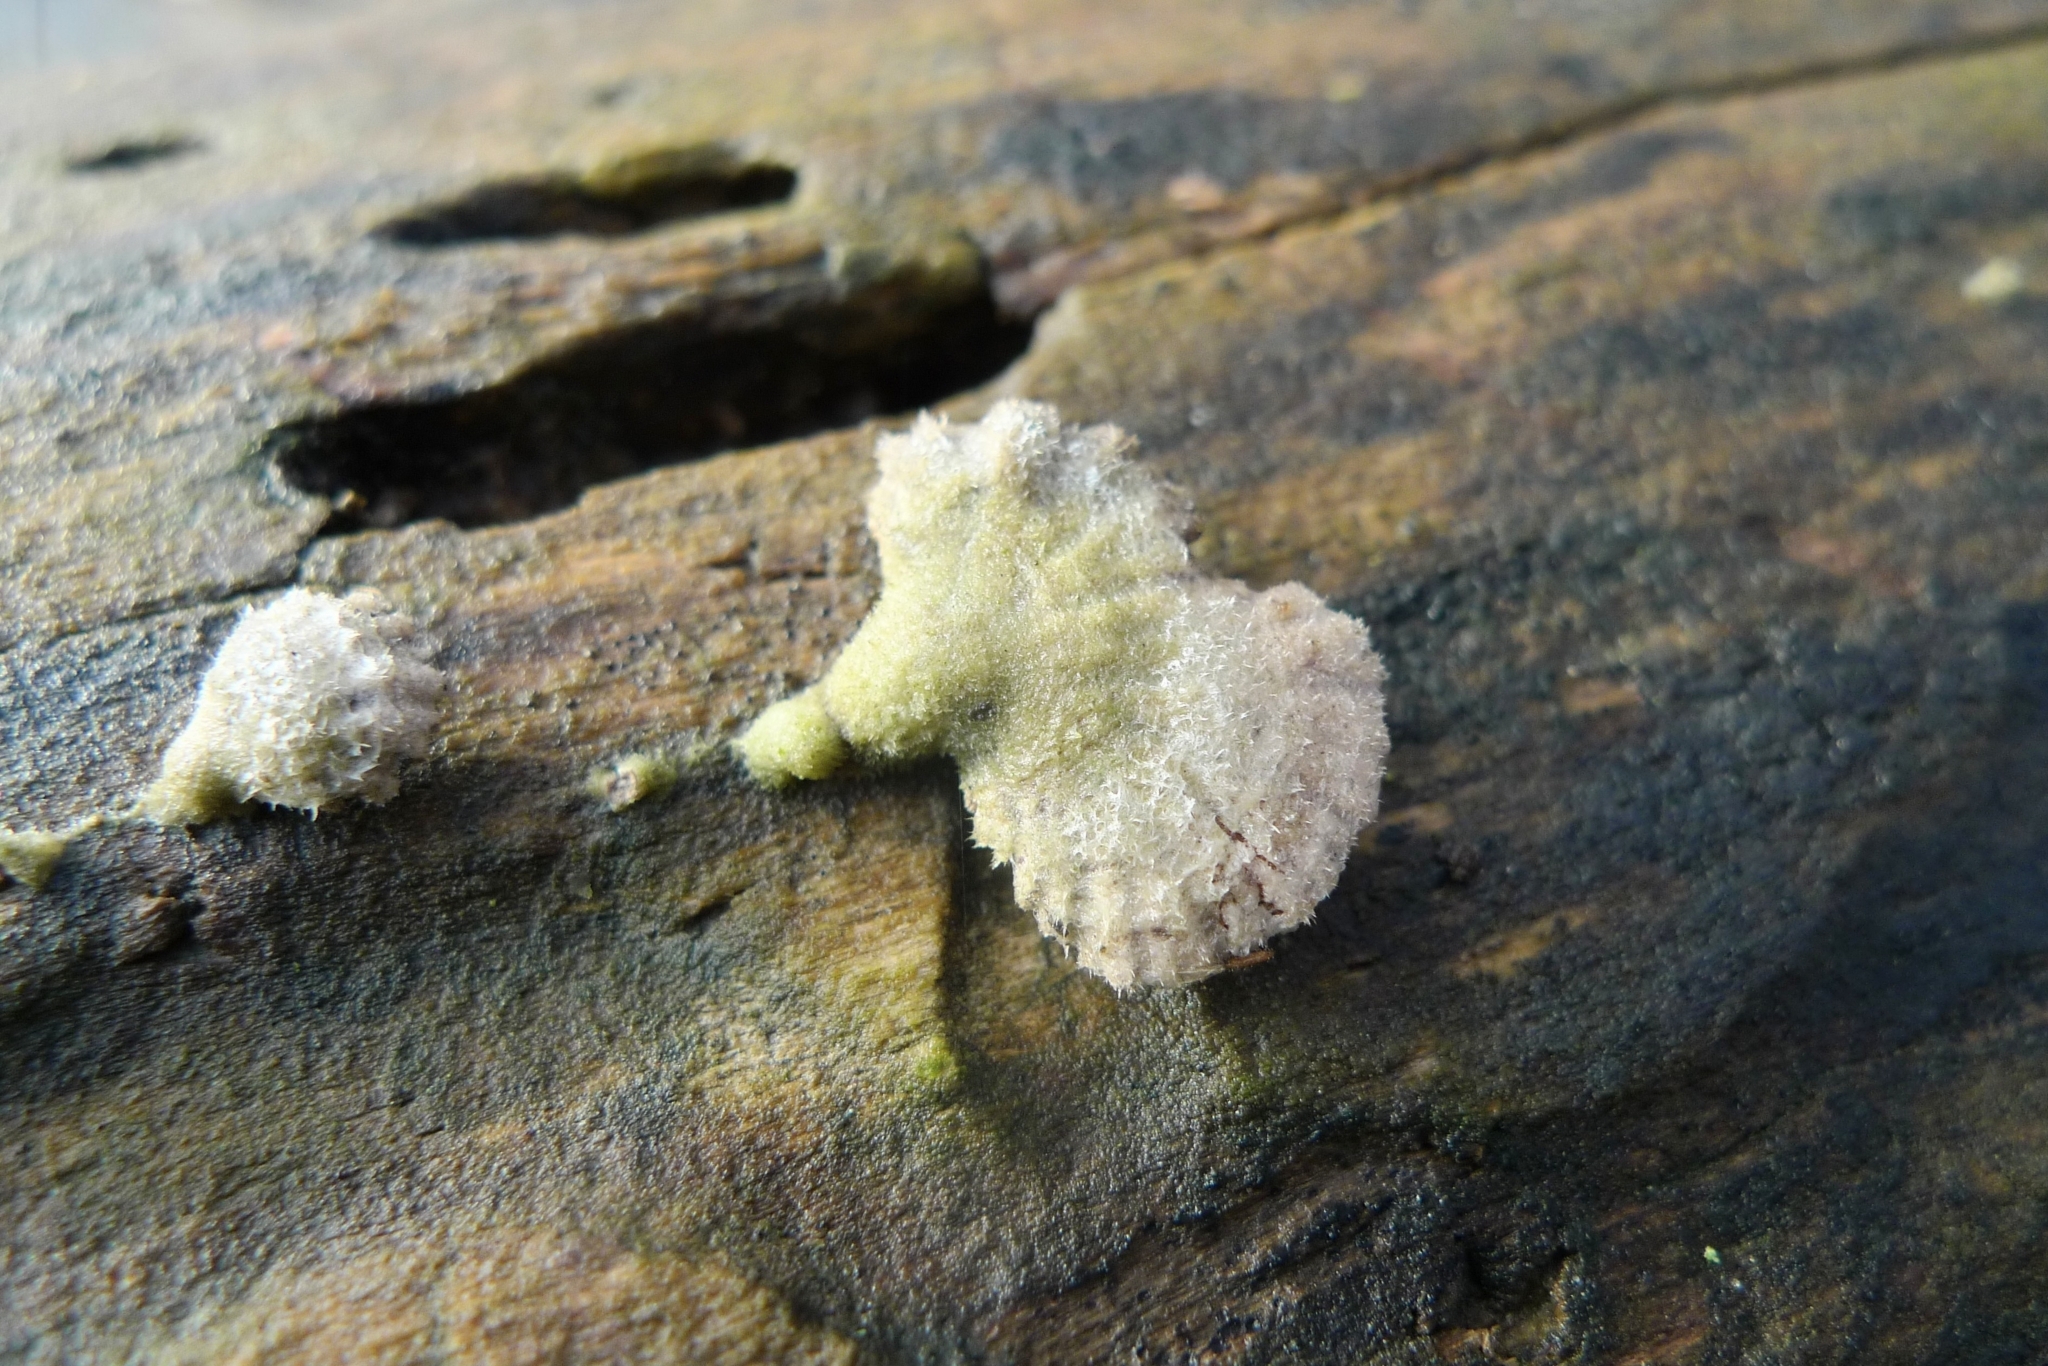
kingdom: Fungi
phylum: Basidiomycota
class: Agaricomycetes
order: Agaricales
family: Schizophyllaceae
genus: Schizophyllum
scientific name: Schizophyllum commune
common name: Common porecrust
